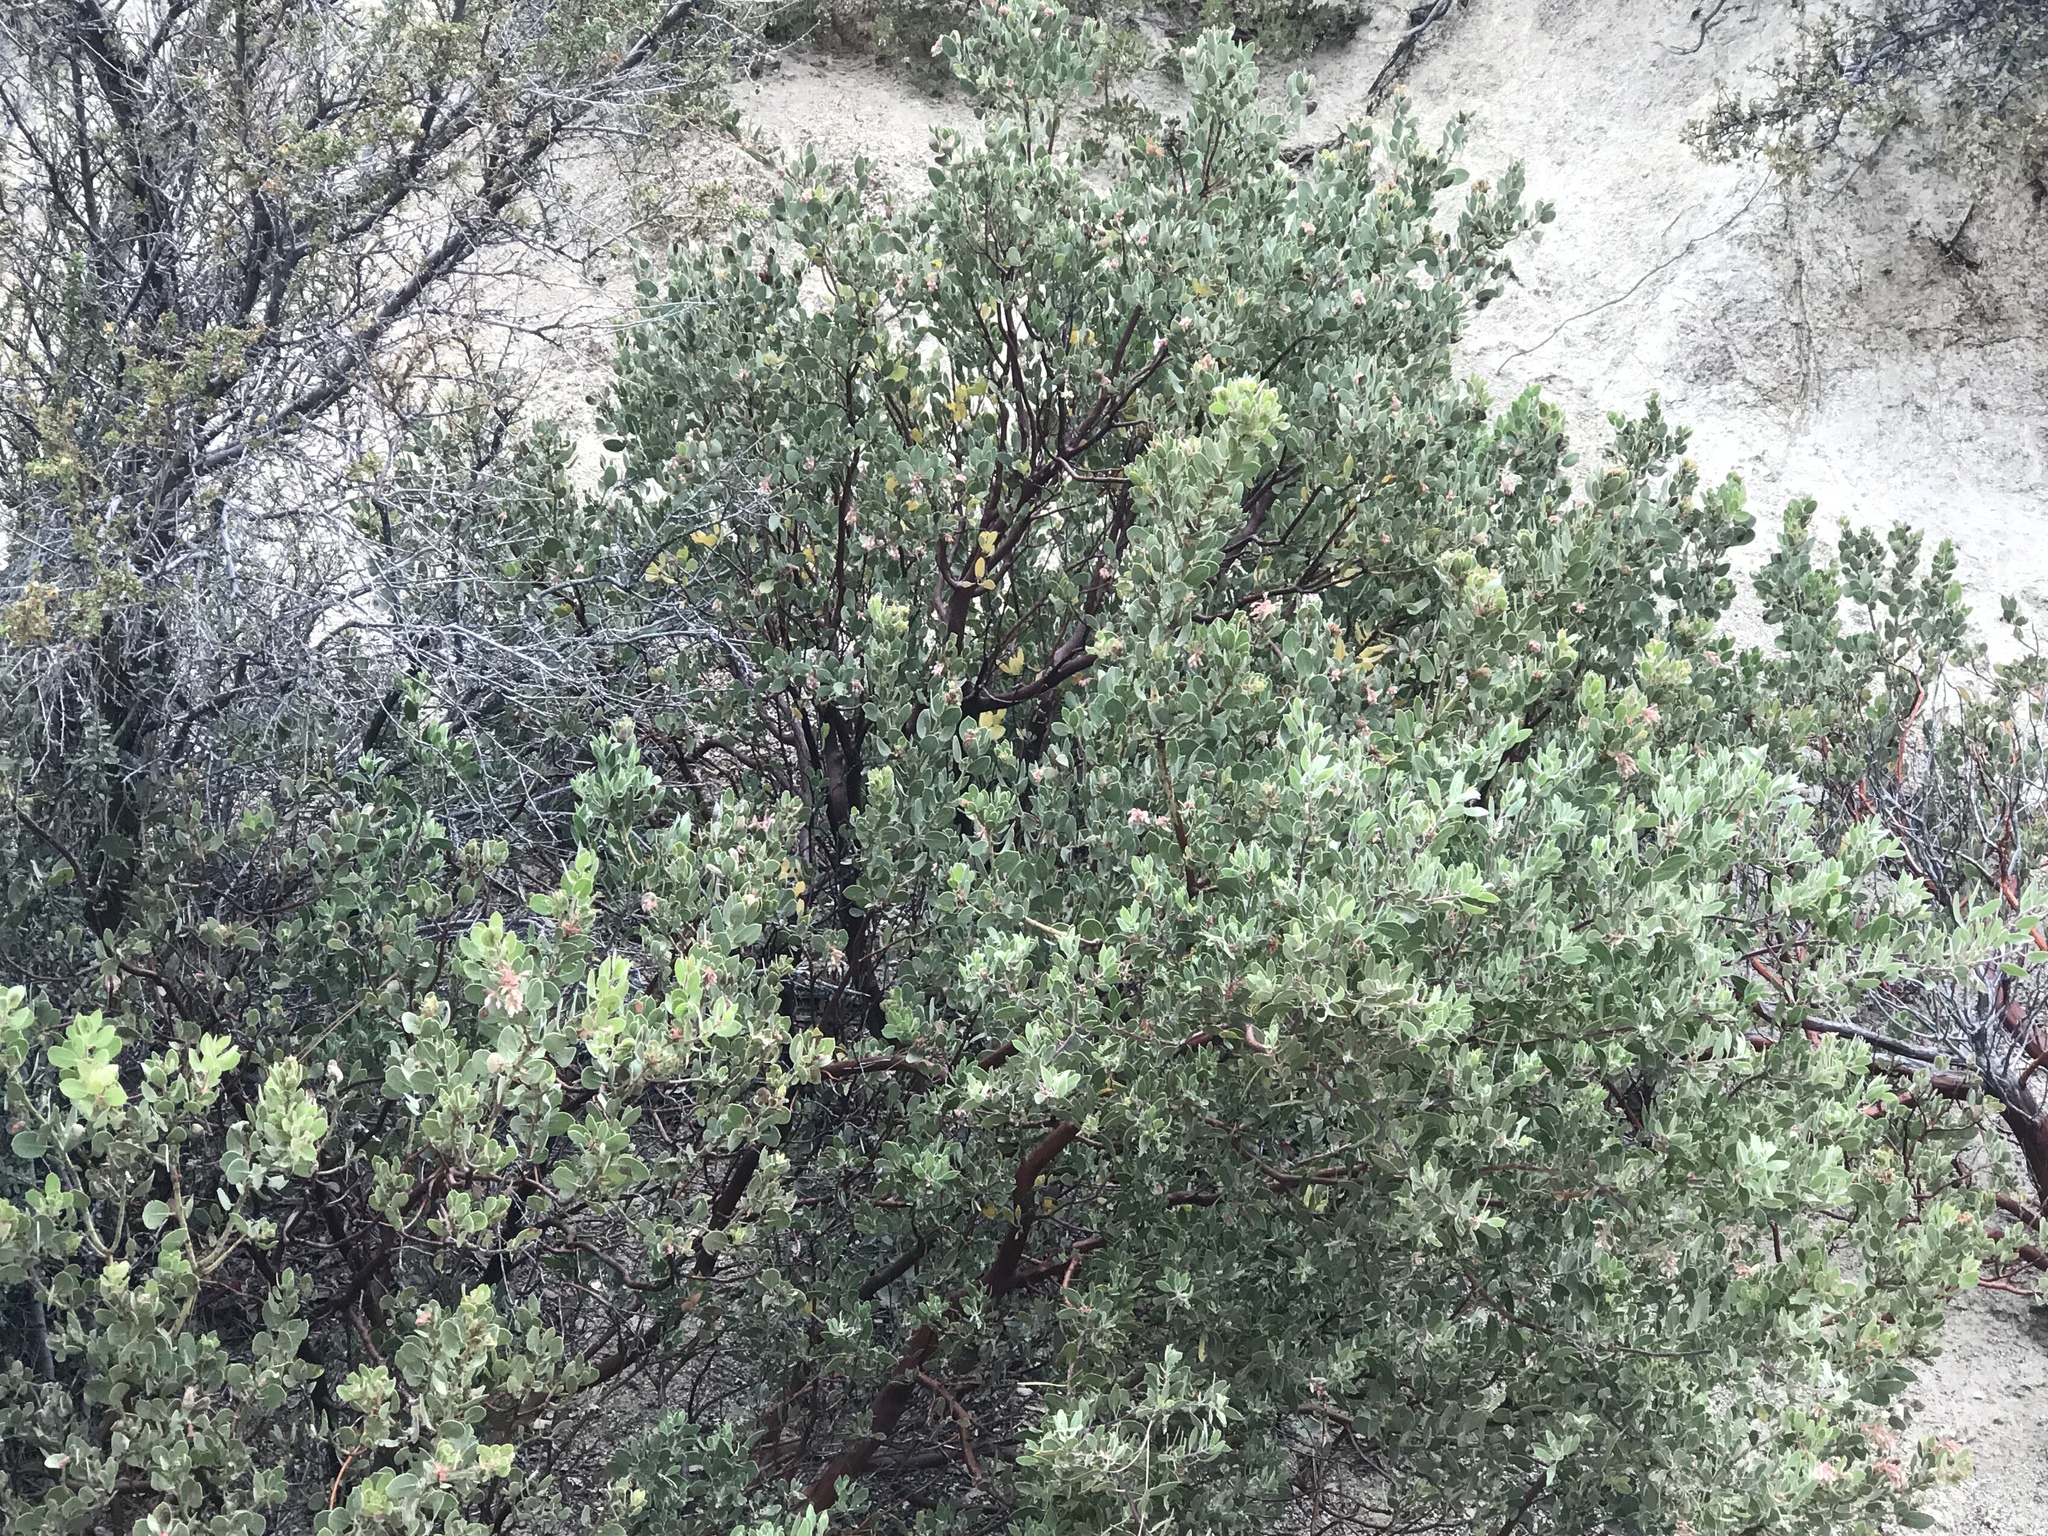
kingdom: Plantae
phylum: Tracheophyta
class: Magnoliopsida
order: Ericales
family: Ericaceae
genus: Arctostaphylos
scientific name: Arctostaphylos pringlei
